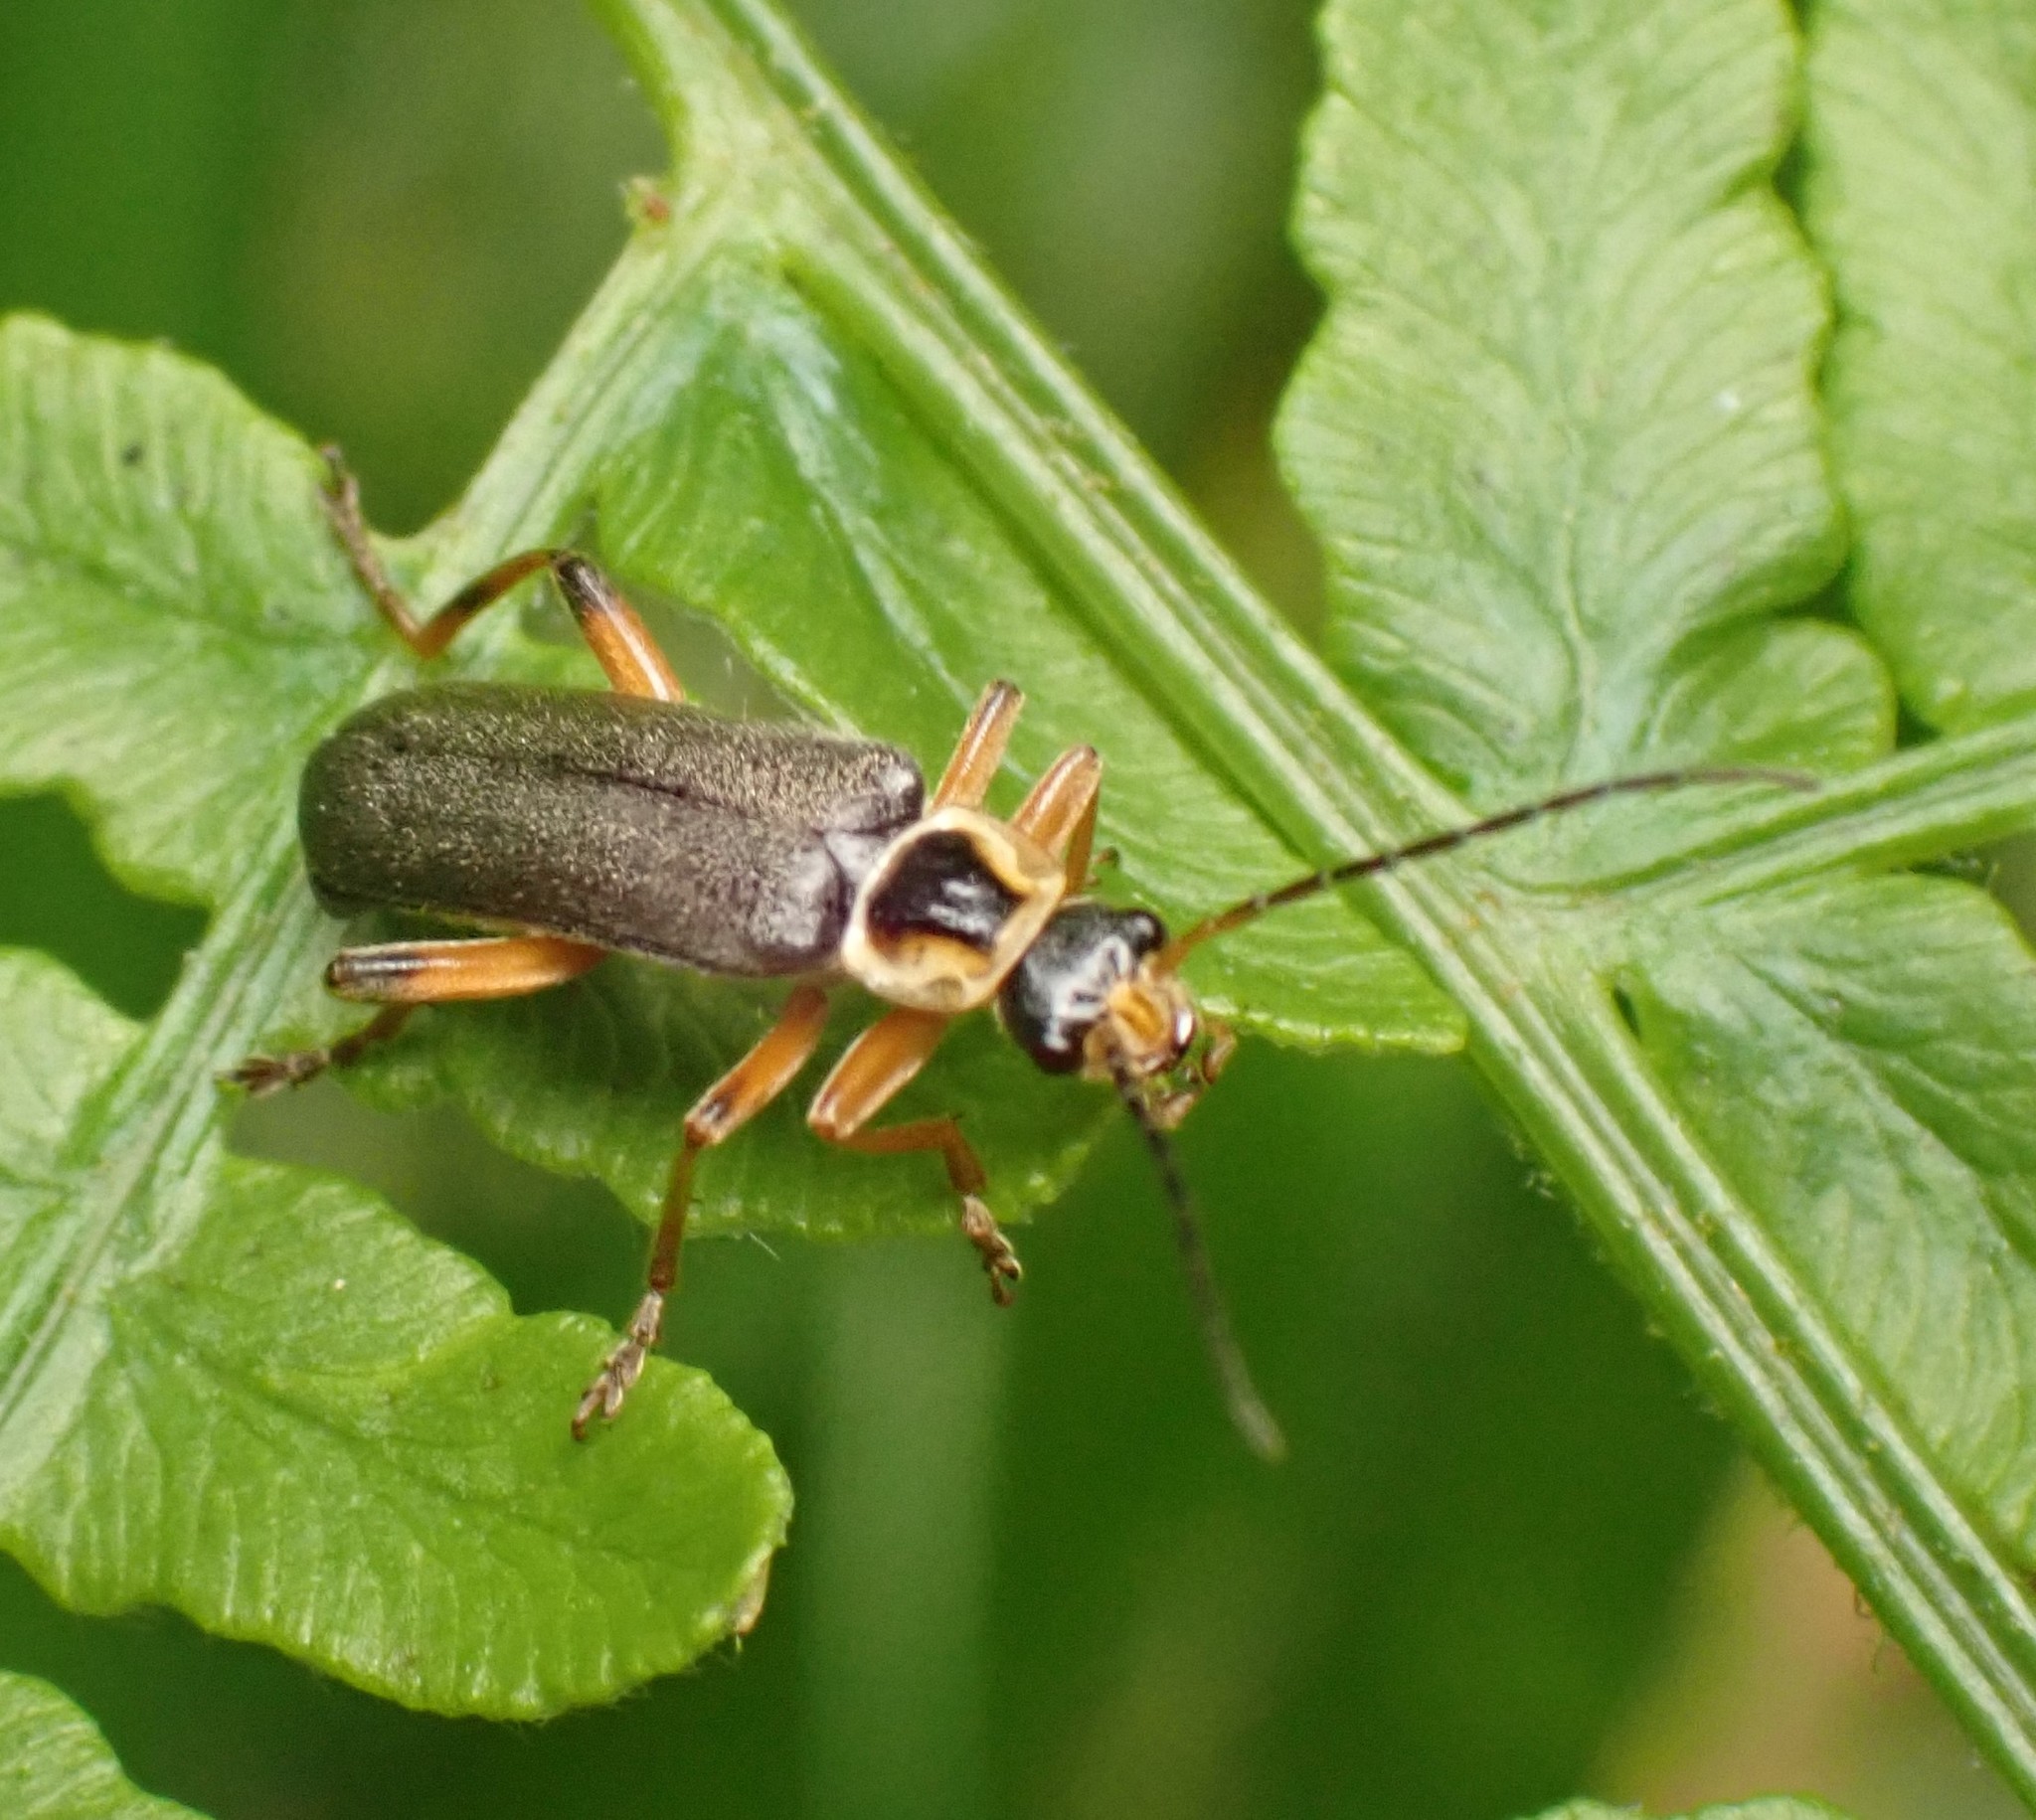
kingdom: Animalia
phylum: Arthropoda
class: Insecta
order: Coleoptera
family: Cantharidae
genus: Cantharis
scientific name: Cantharis nigricans
